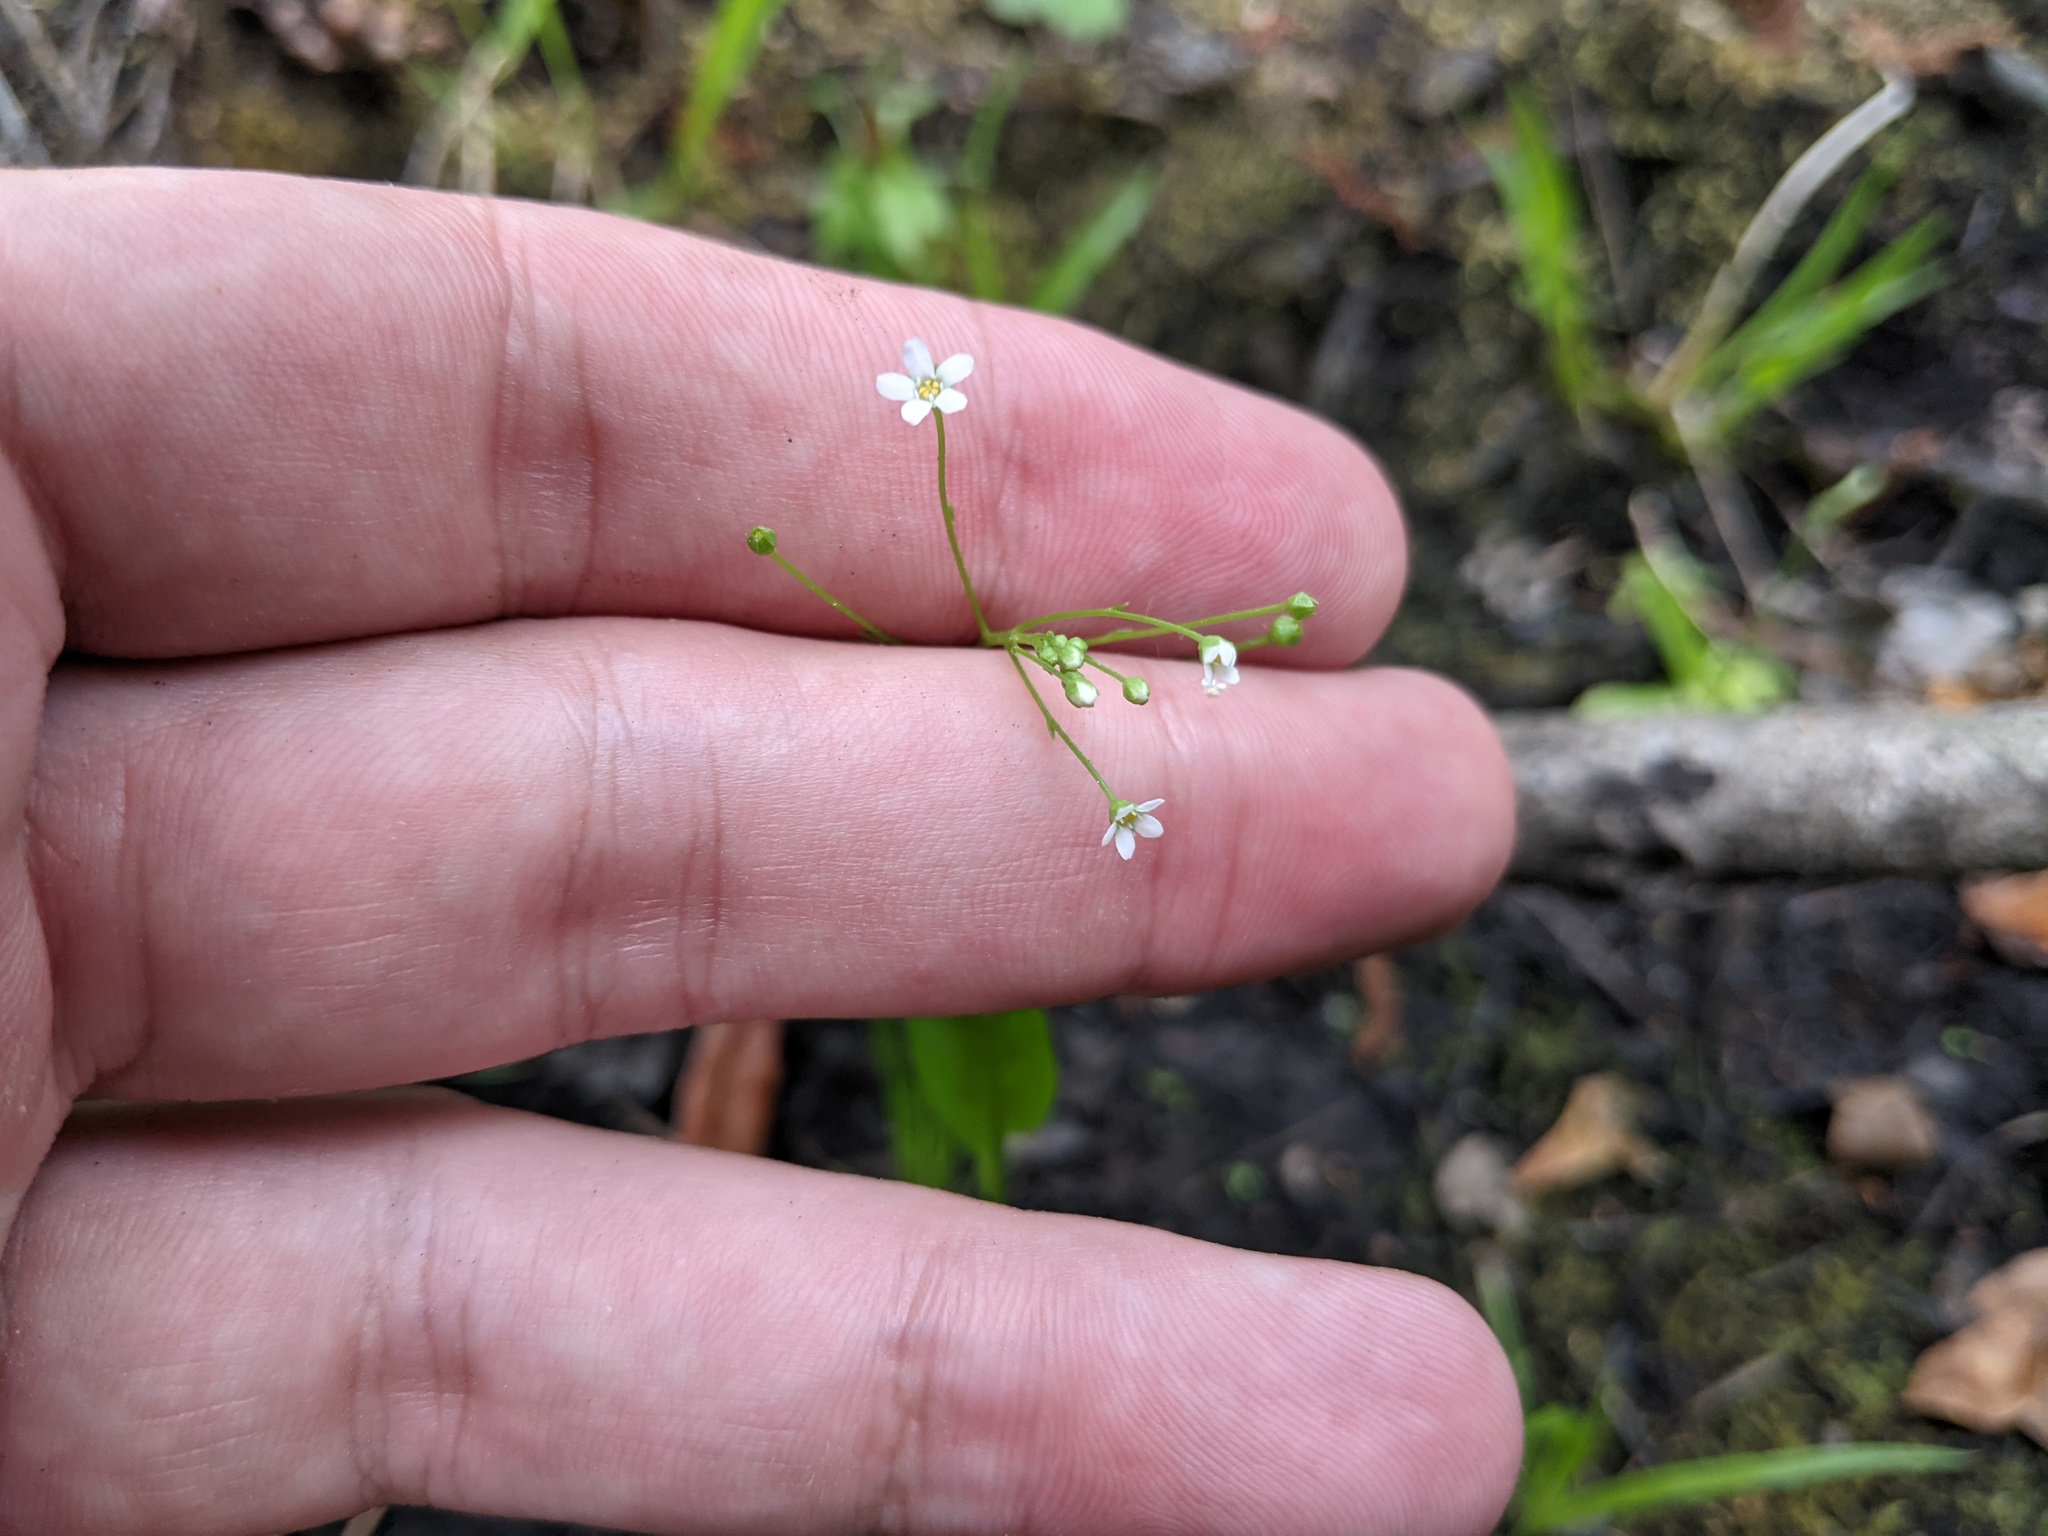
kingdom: Plantae
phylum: Tracheophyta
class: Magnoliopsida
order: Ericales
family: Primulaceae
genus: Samolus
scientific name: Samolus parviflorus
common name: False water pimpernel
